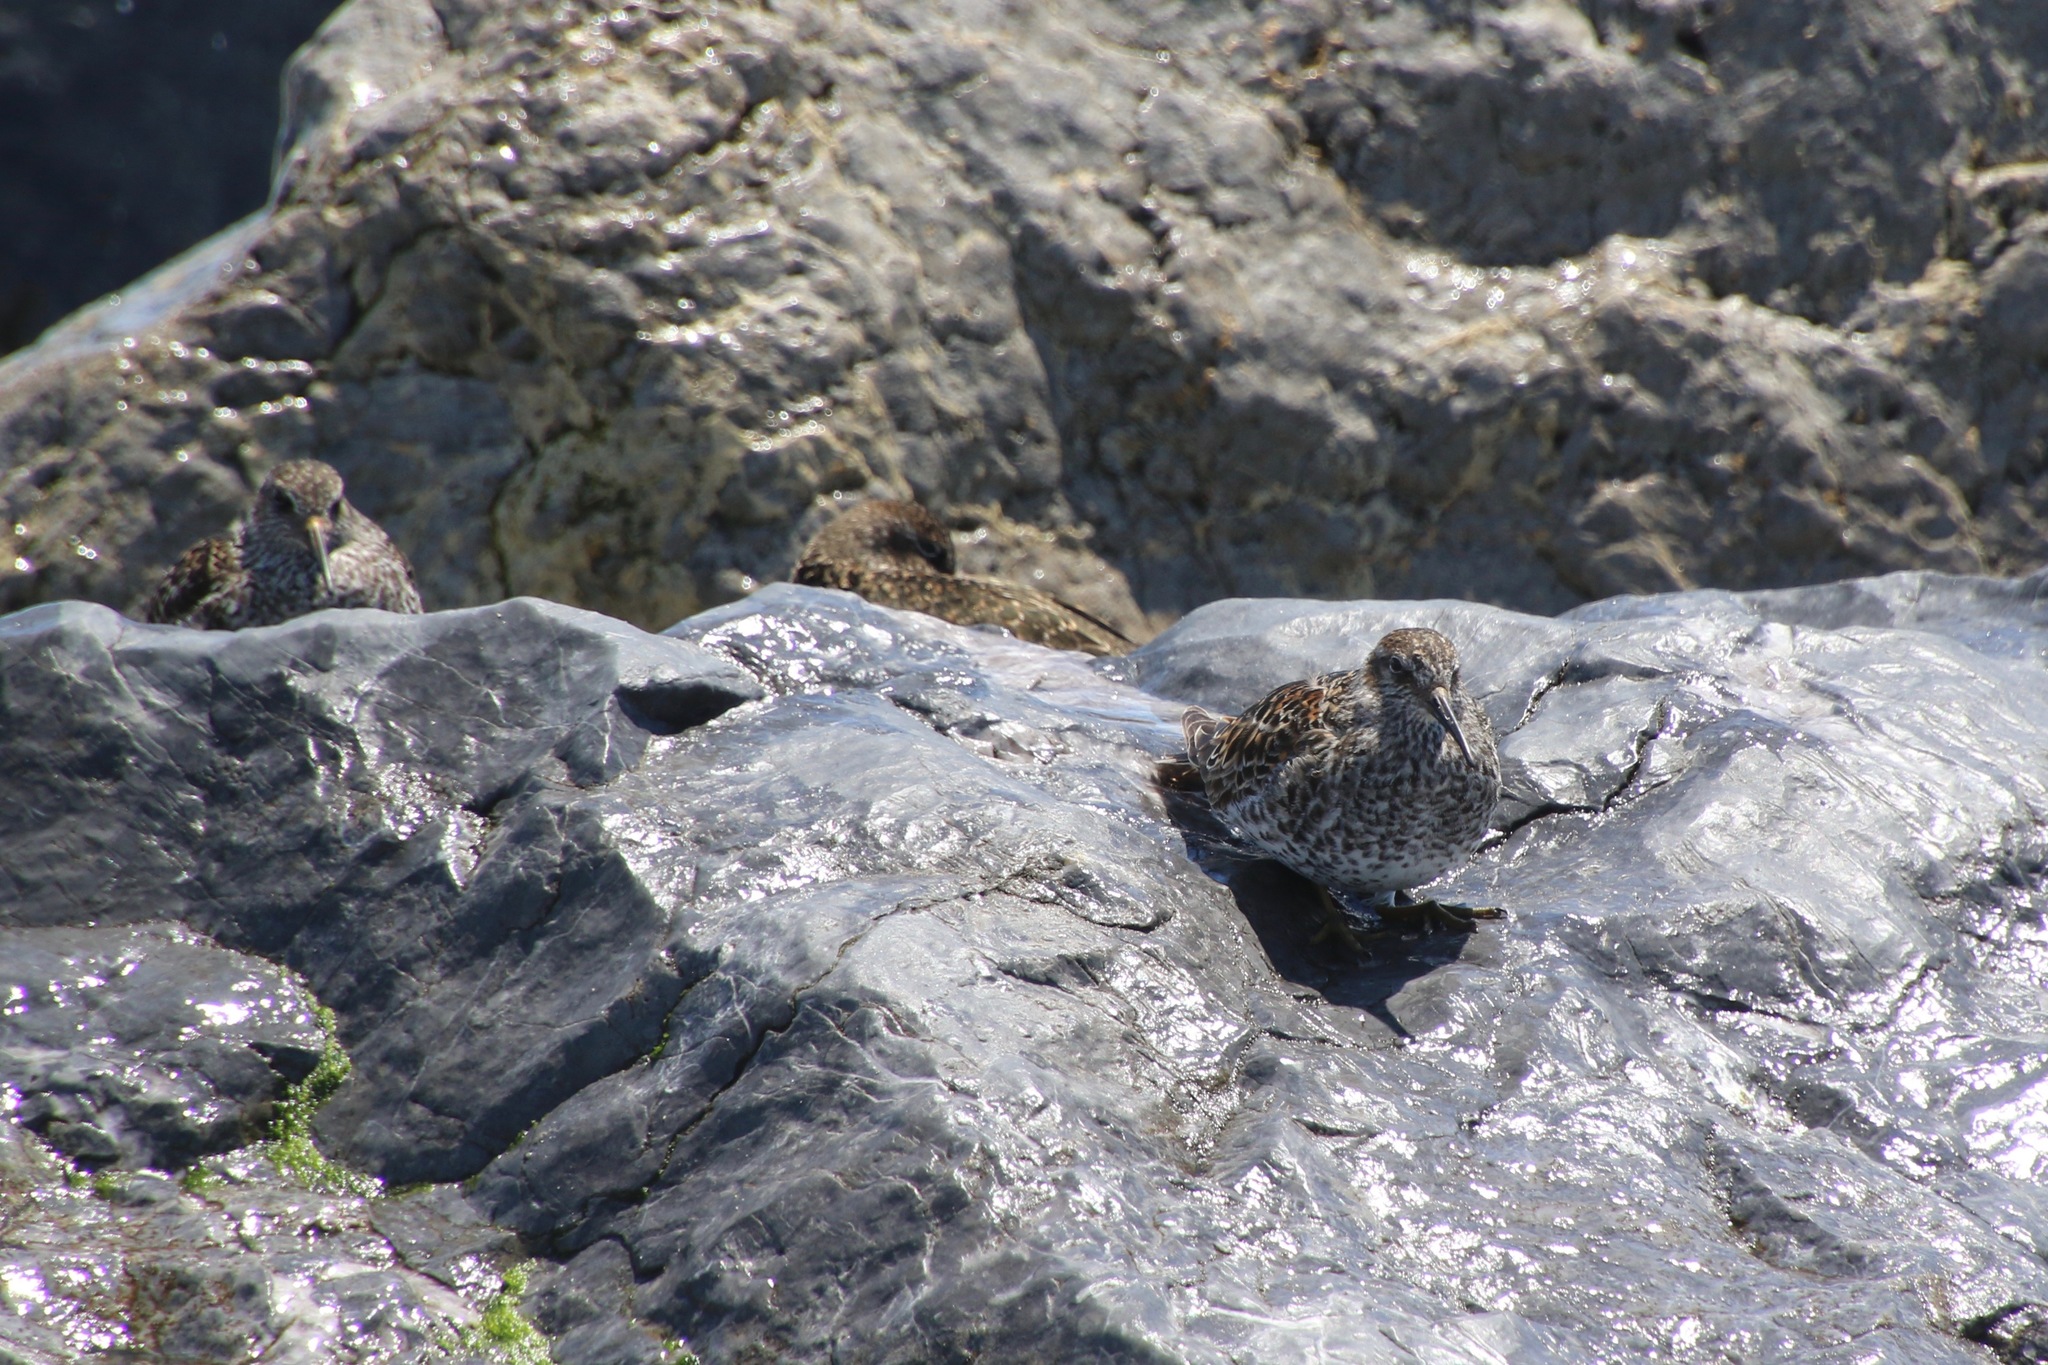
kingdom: Animalia
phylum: Chordata
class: Aves
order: Charadriiformes
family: Scolopacidae
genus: Calidris
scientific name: Calidris maritima
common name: Purple sandpiper
